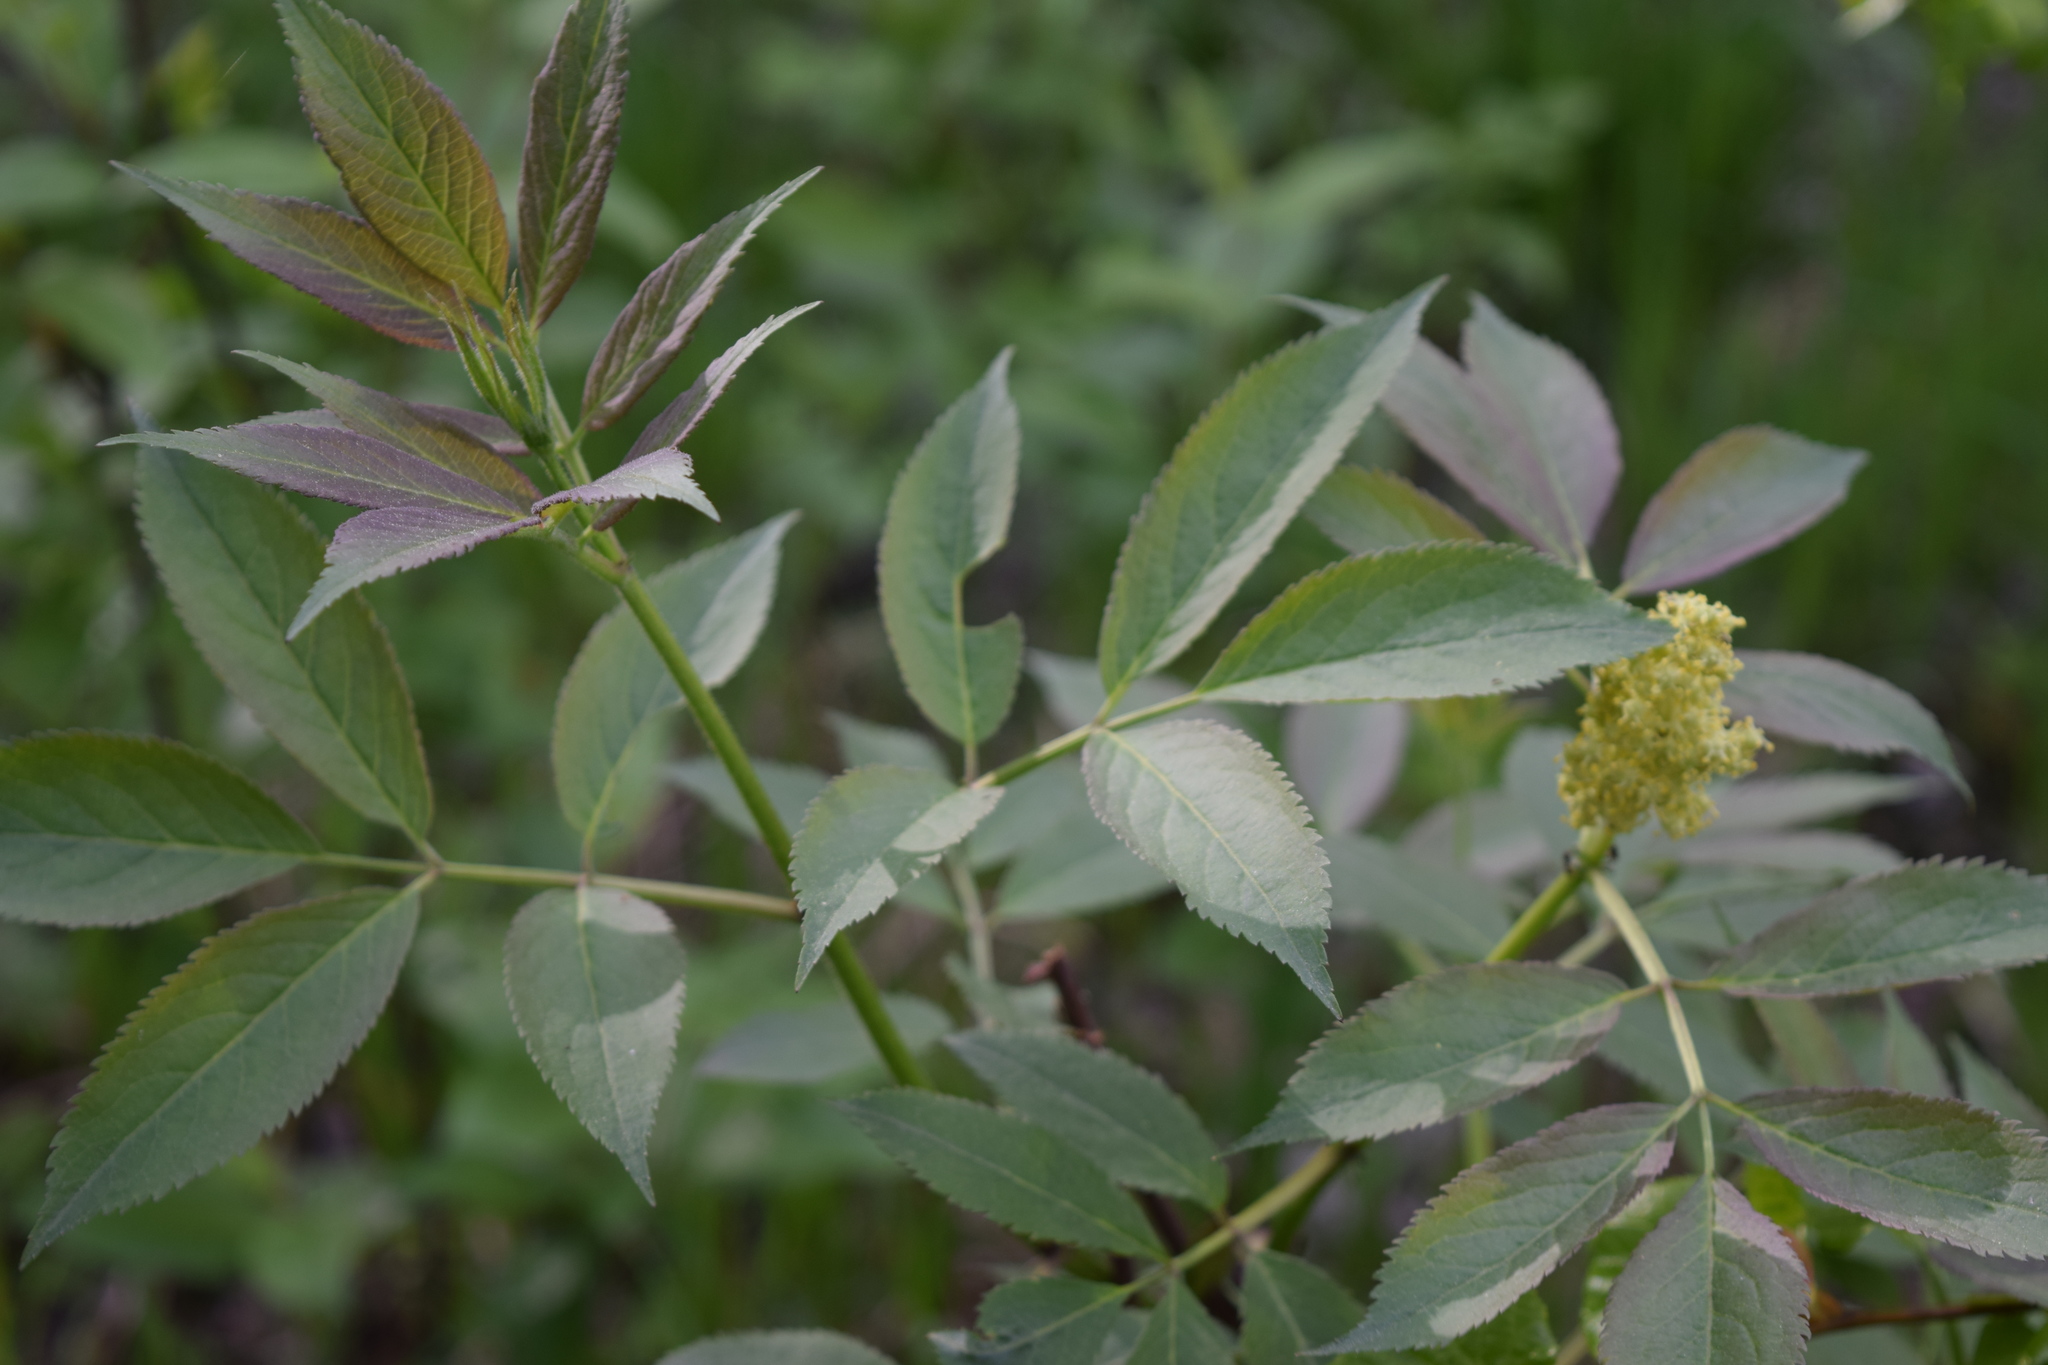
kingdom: Plantae
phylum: Tracheophyta
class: Magnoliopsida
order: Dipsacales
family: Viburnaceae
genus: Sambucus
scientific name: Sambucus racemosa
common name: Red-berried elder
